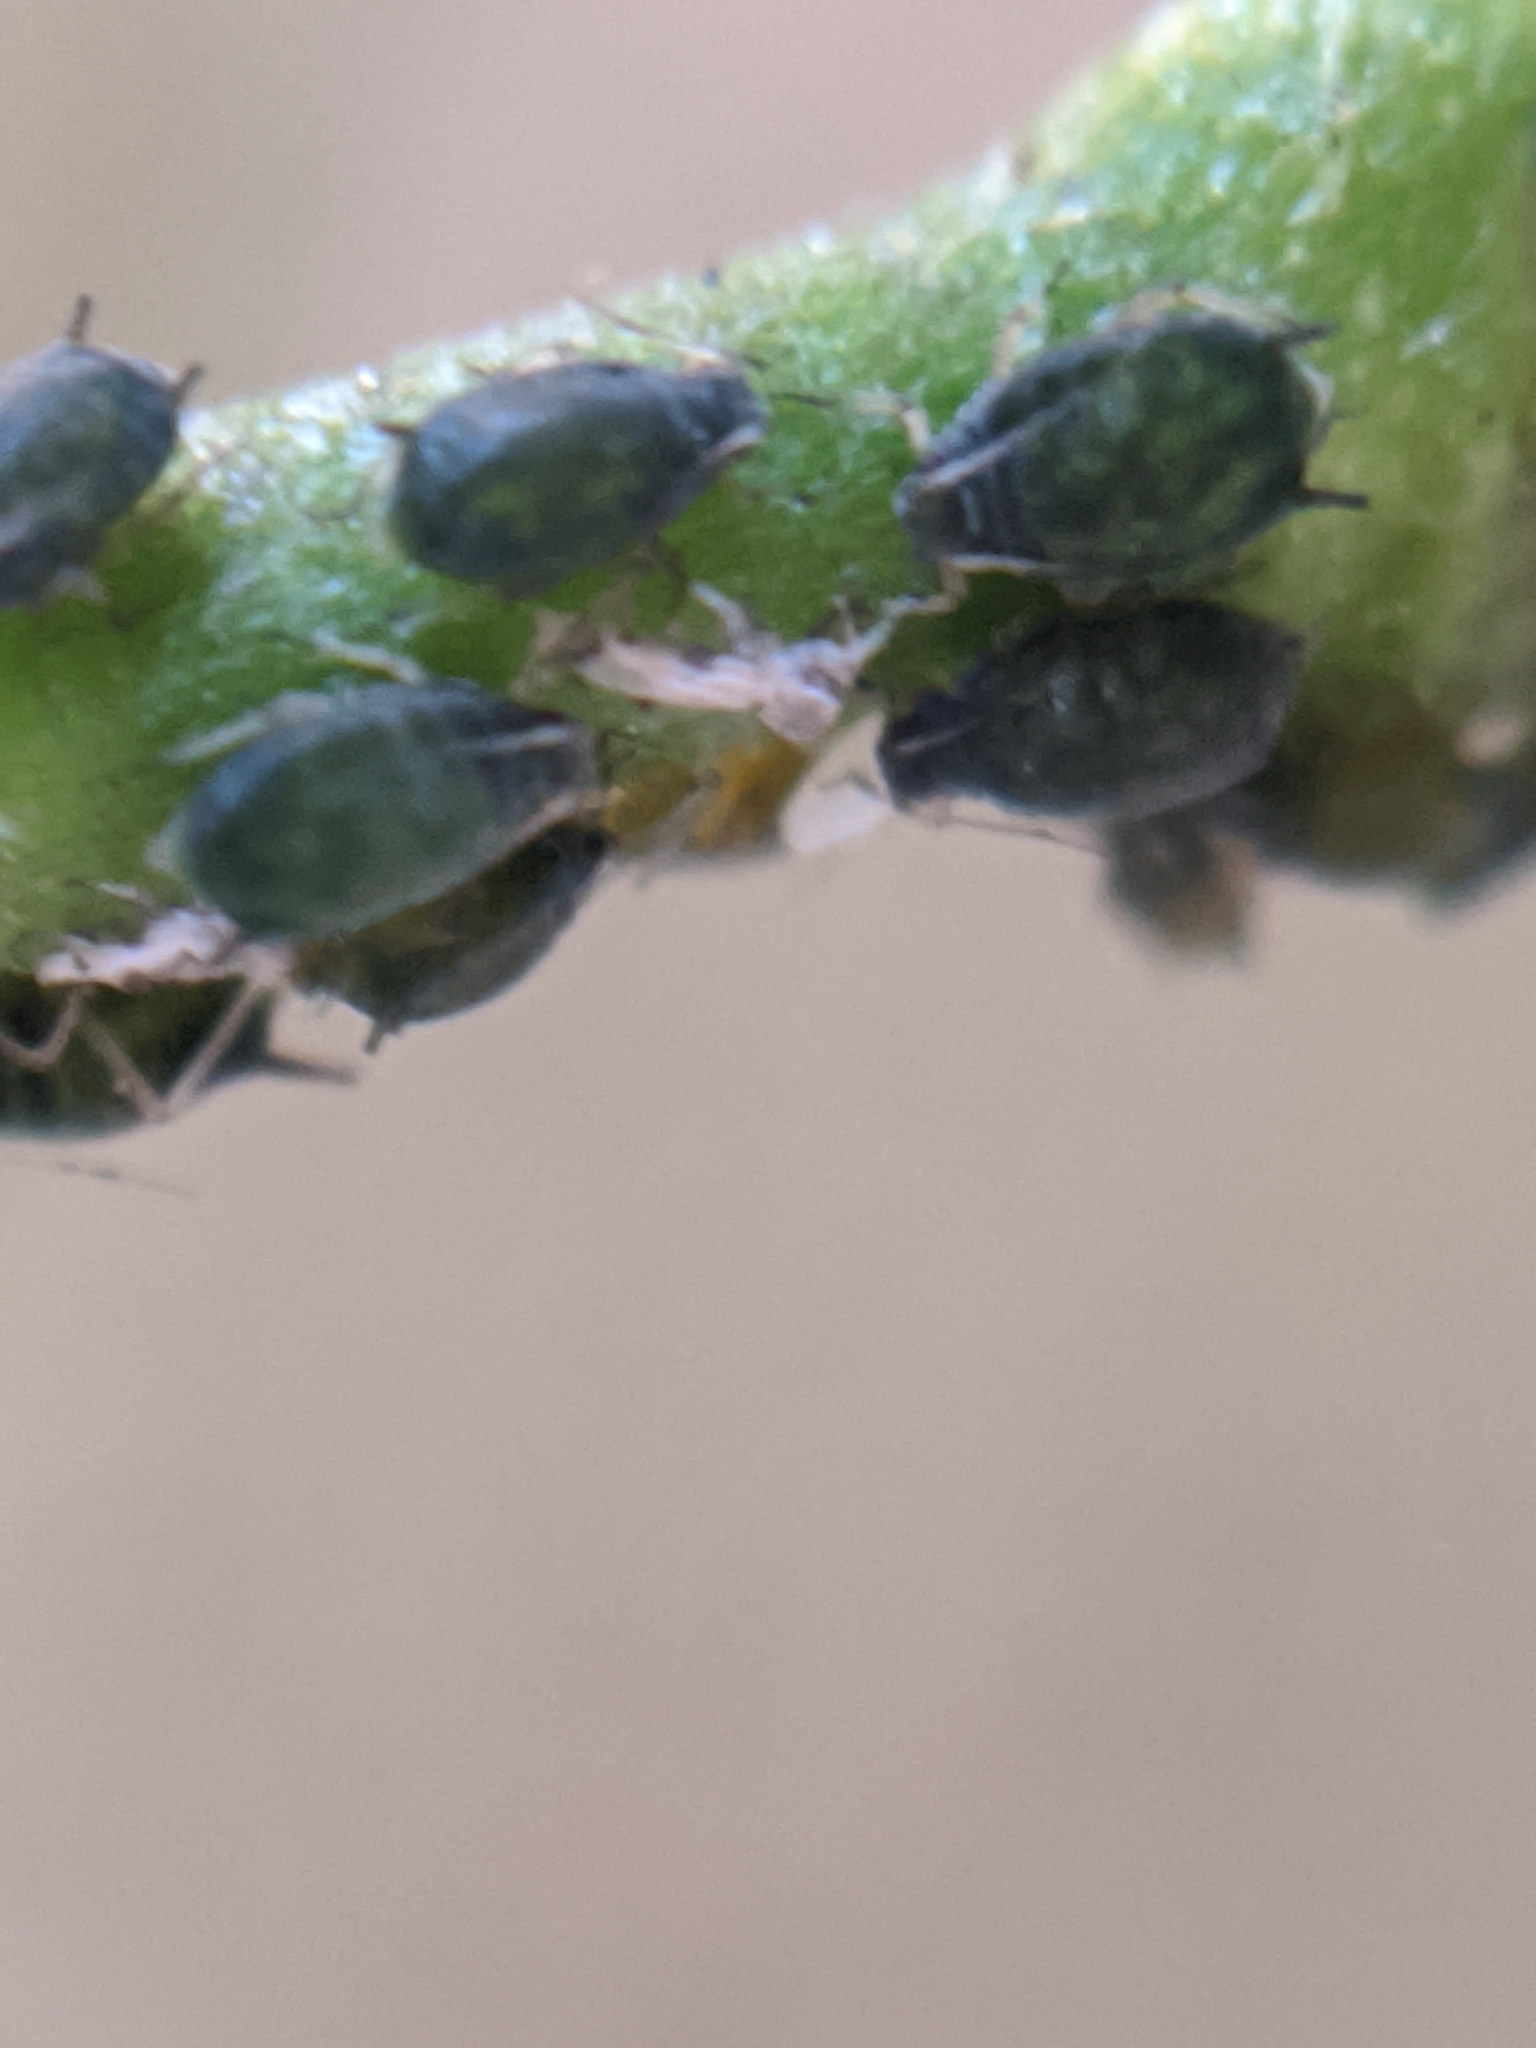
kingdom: Animalia
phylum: Arthropoda
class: Insecta
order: Hemiptera
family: Aphididae
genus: Aphis
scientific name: Aphis gossypii
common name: Melon aphid
